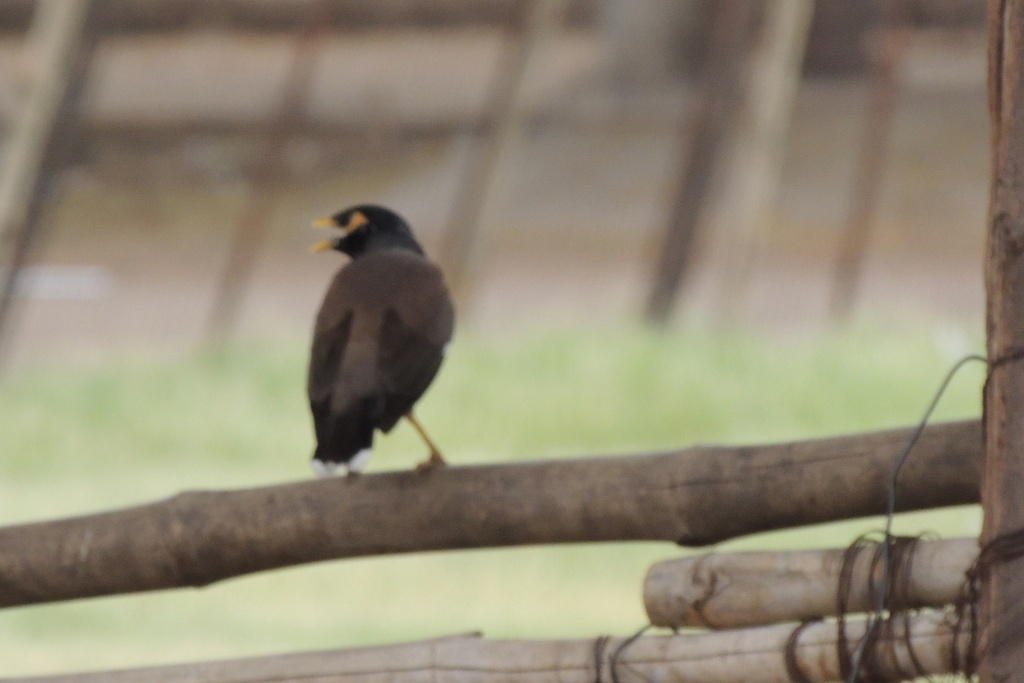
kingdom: Animalia
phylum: Chordata
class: Aves
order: Passeriformes
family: Sturnidae
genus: Acridotheres
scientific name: Acridotheres tristis
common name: Common myna
